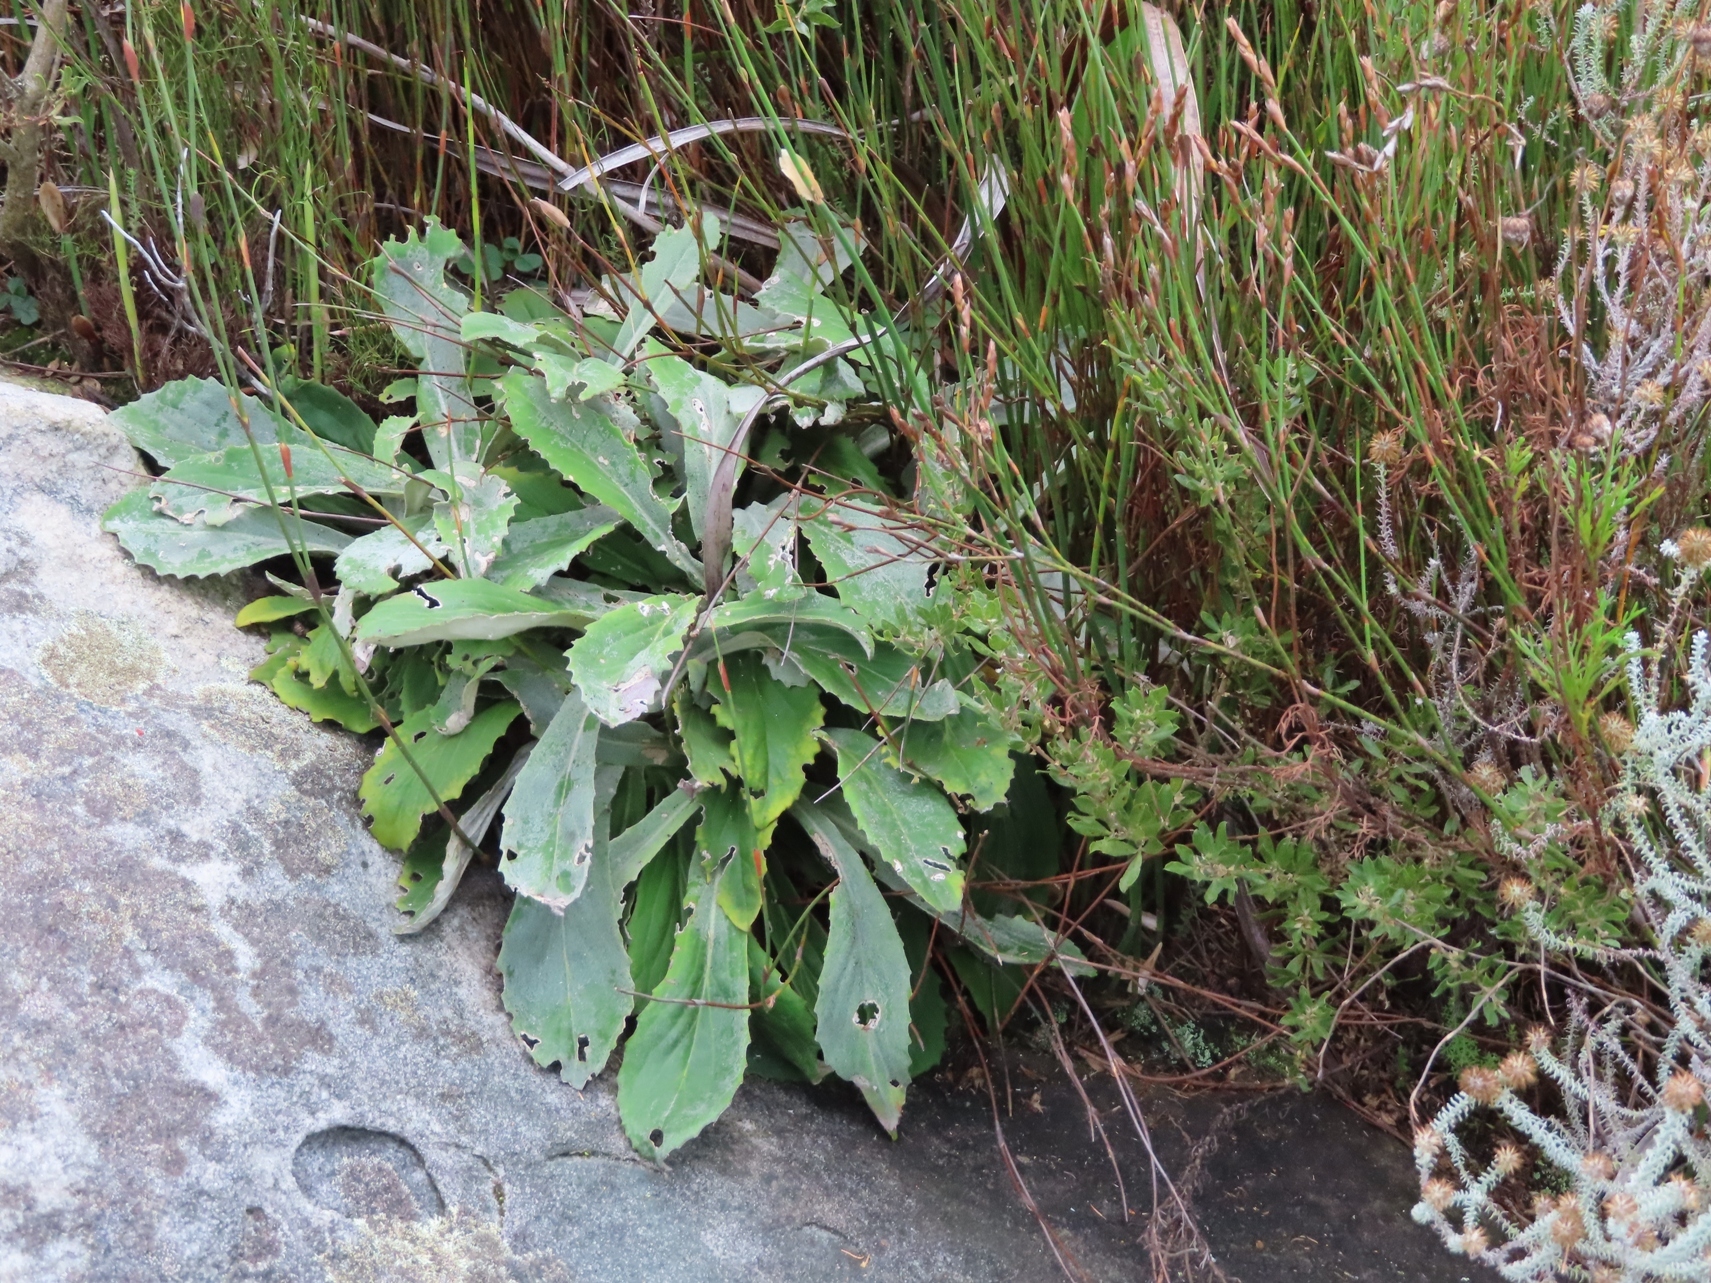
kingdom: Plantae
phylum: Tracheophyta
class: Magnoliopsida
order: Asterales
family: Asteraceae
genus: Capelio
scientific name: Capelio tomentosa
